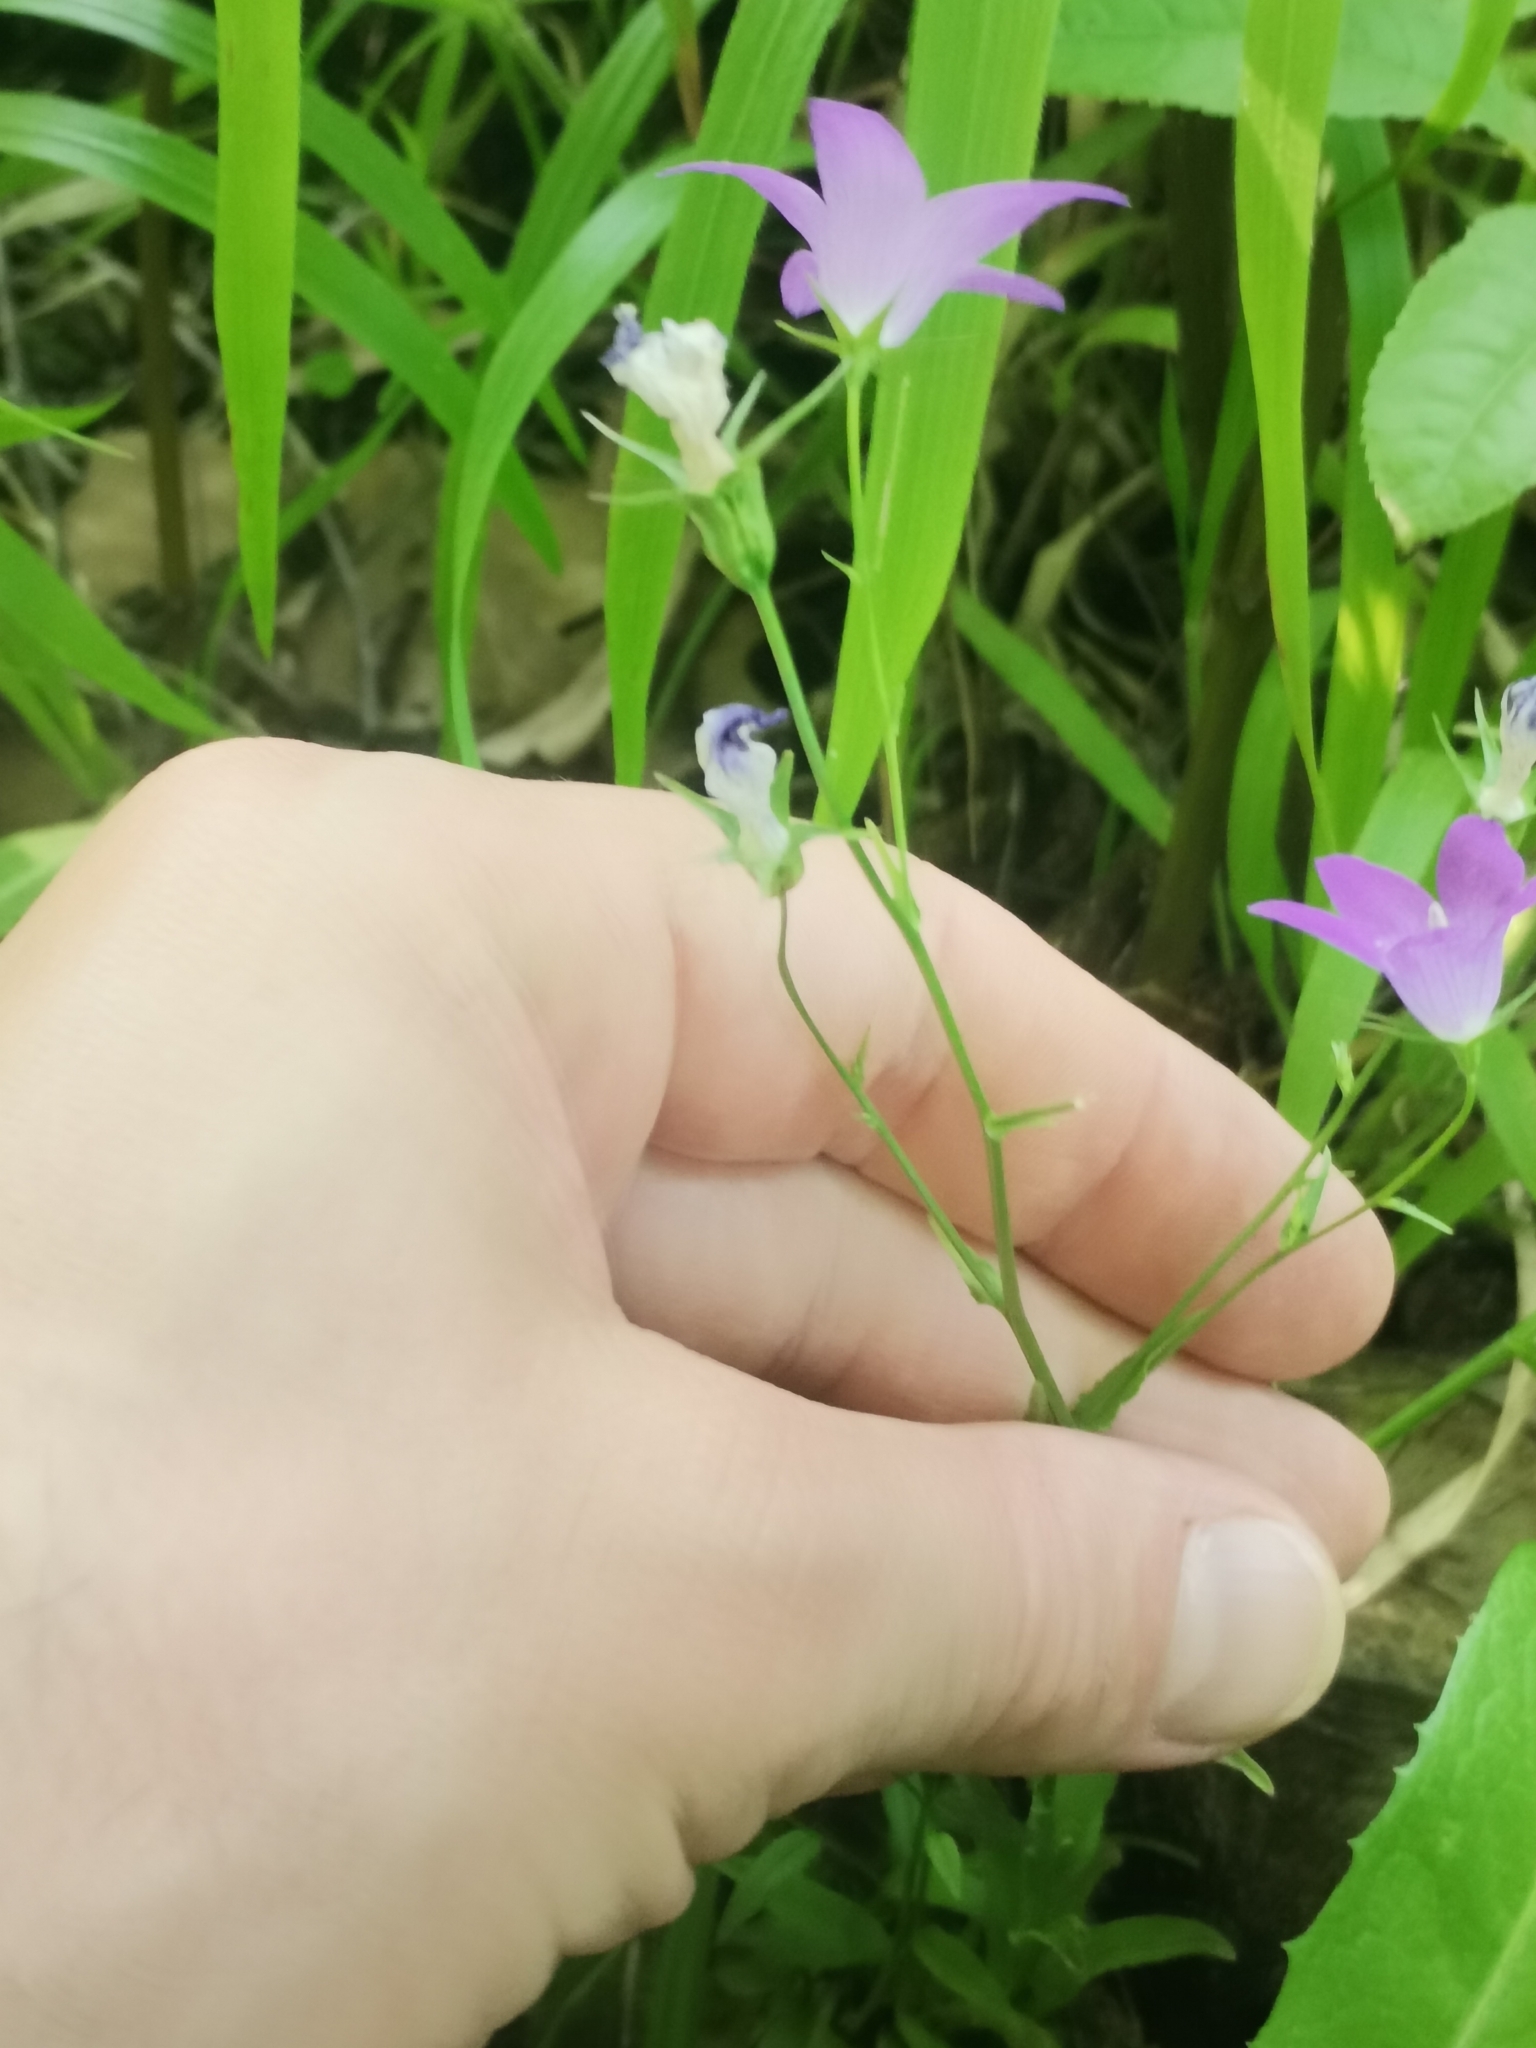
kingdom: Plantae
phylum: Tracheophyta
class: Magnoliopsida
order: Asterales
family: Campanulaceae
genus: Campanula
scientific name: Campanula patula
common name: Spreading bellflower
